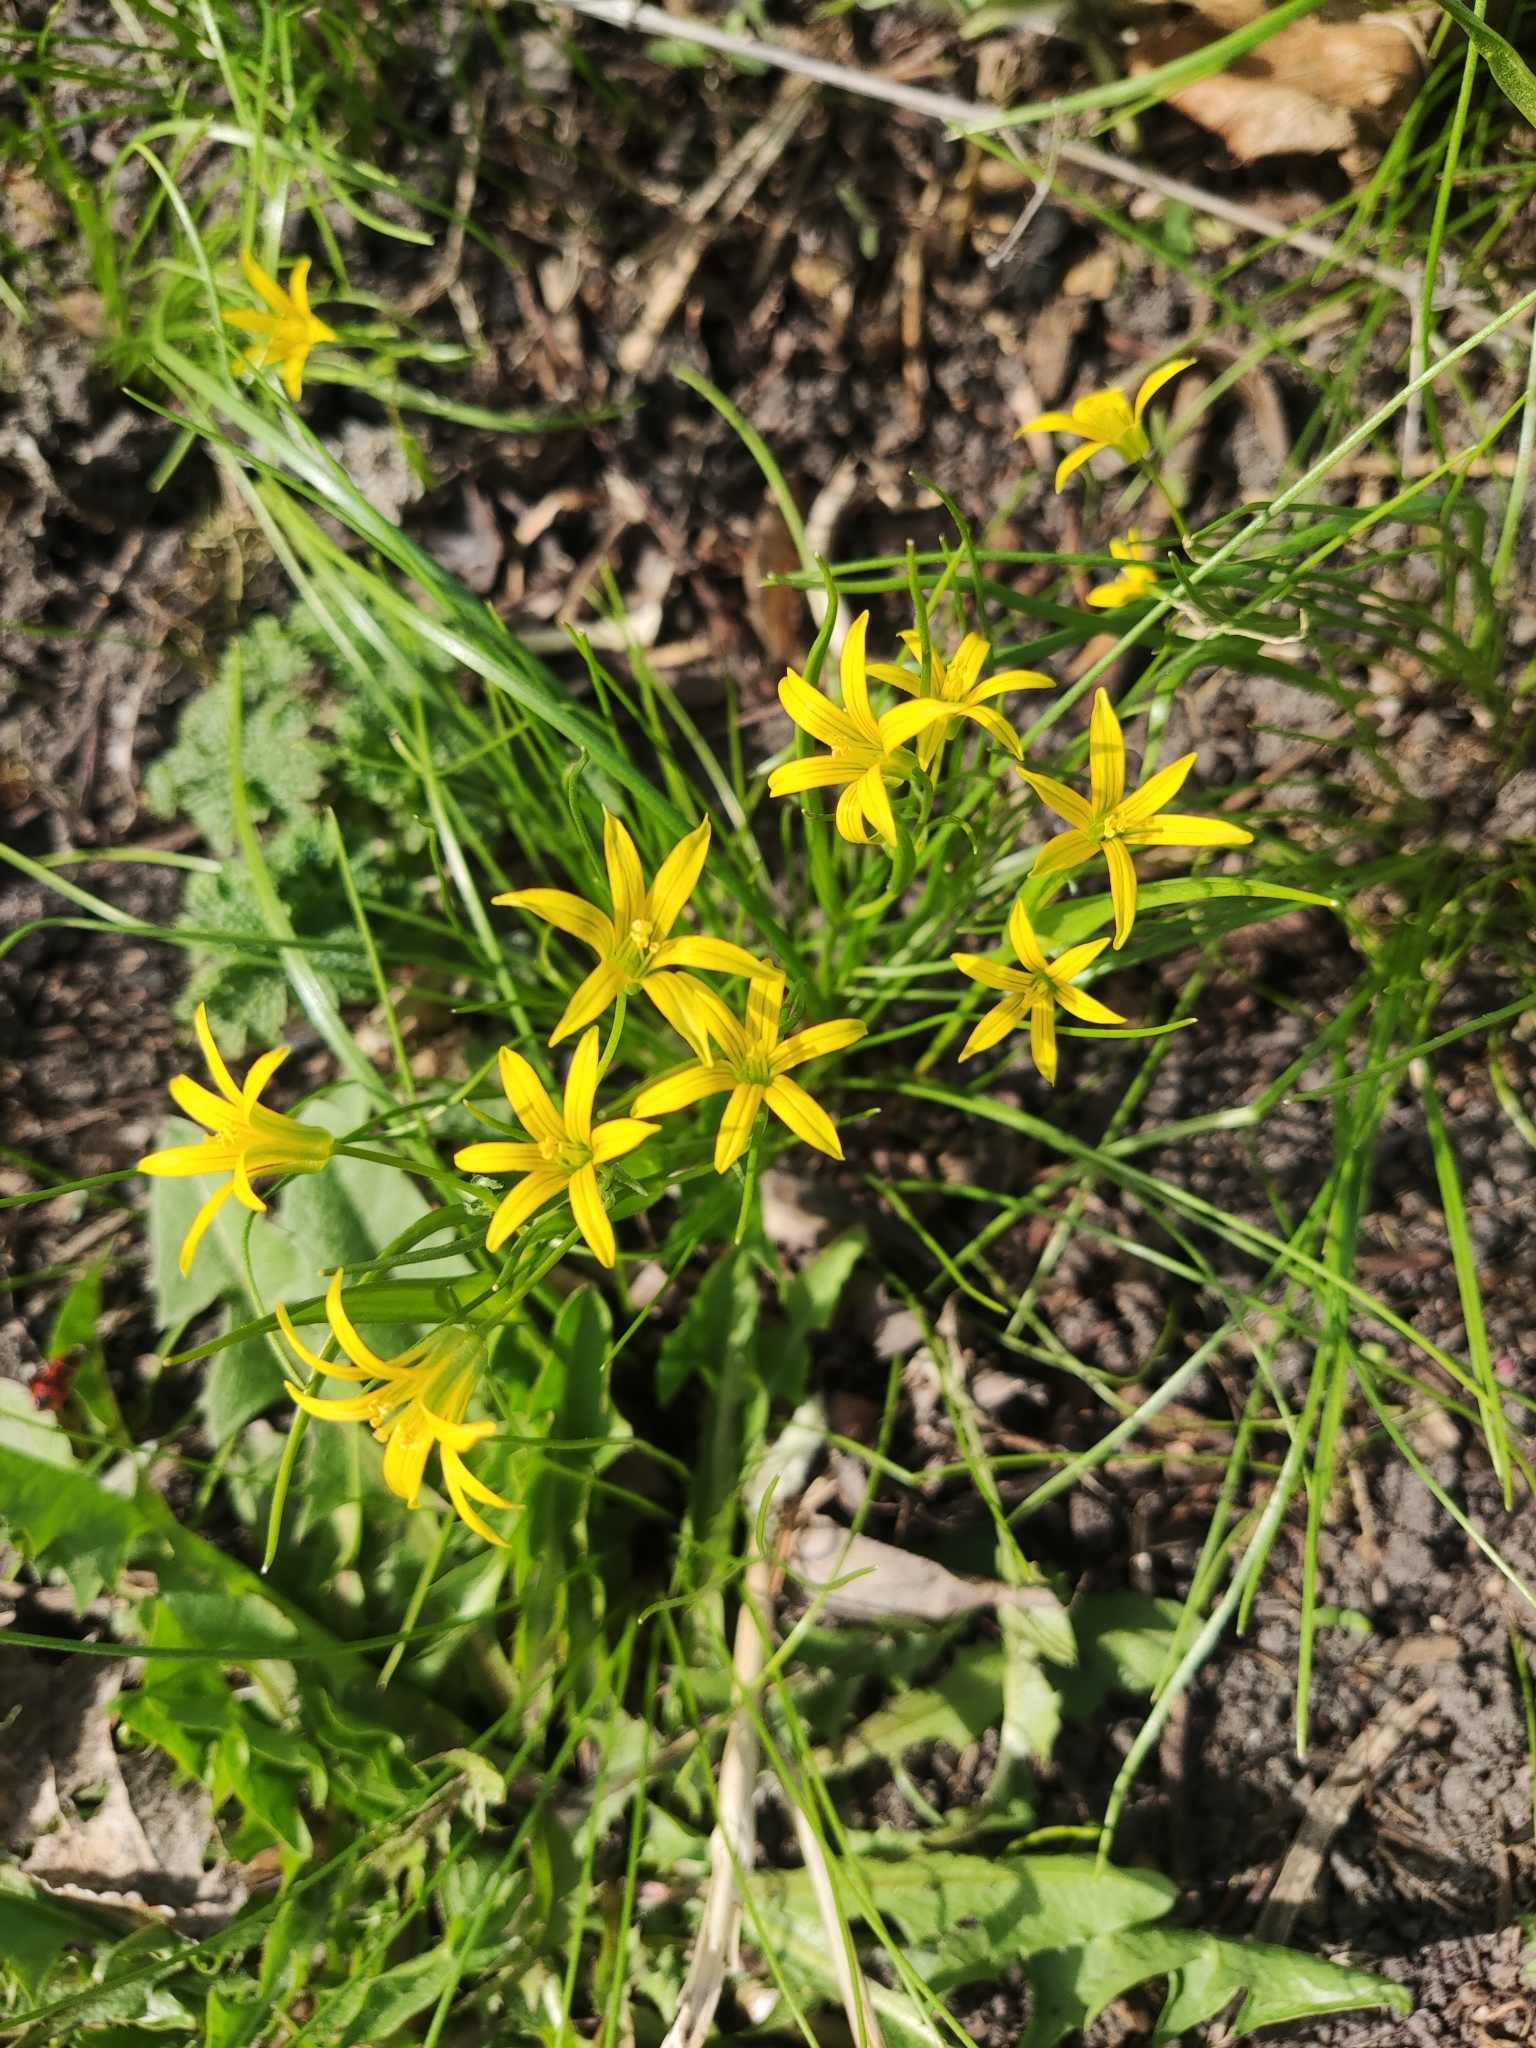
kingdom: Plantae
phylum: Tracheophyta
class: Liliopsida
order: Liliales
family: Liliaceae
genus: Gagea
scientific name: Gagea minima
